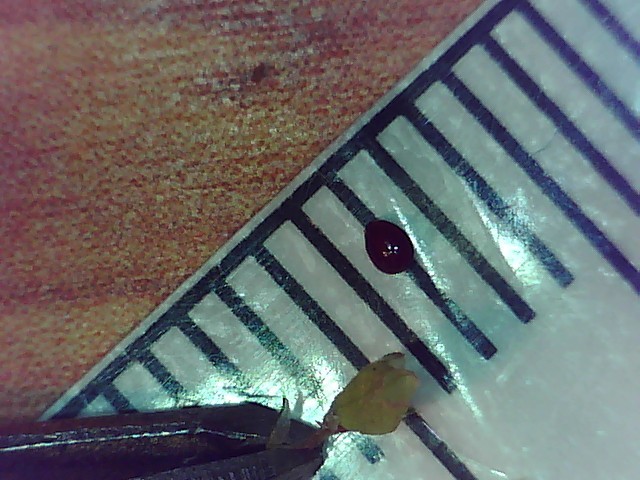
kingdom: Plantae
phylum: Tracheophyta
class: Magnoliopsida
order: Caryophyllales
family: Amaranthaceae
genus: Amaranthus
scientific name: Amaranthus deflexus
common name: Perennial pigweed
